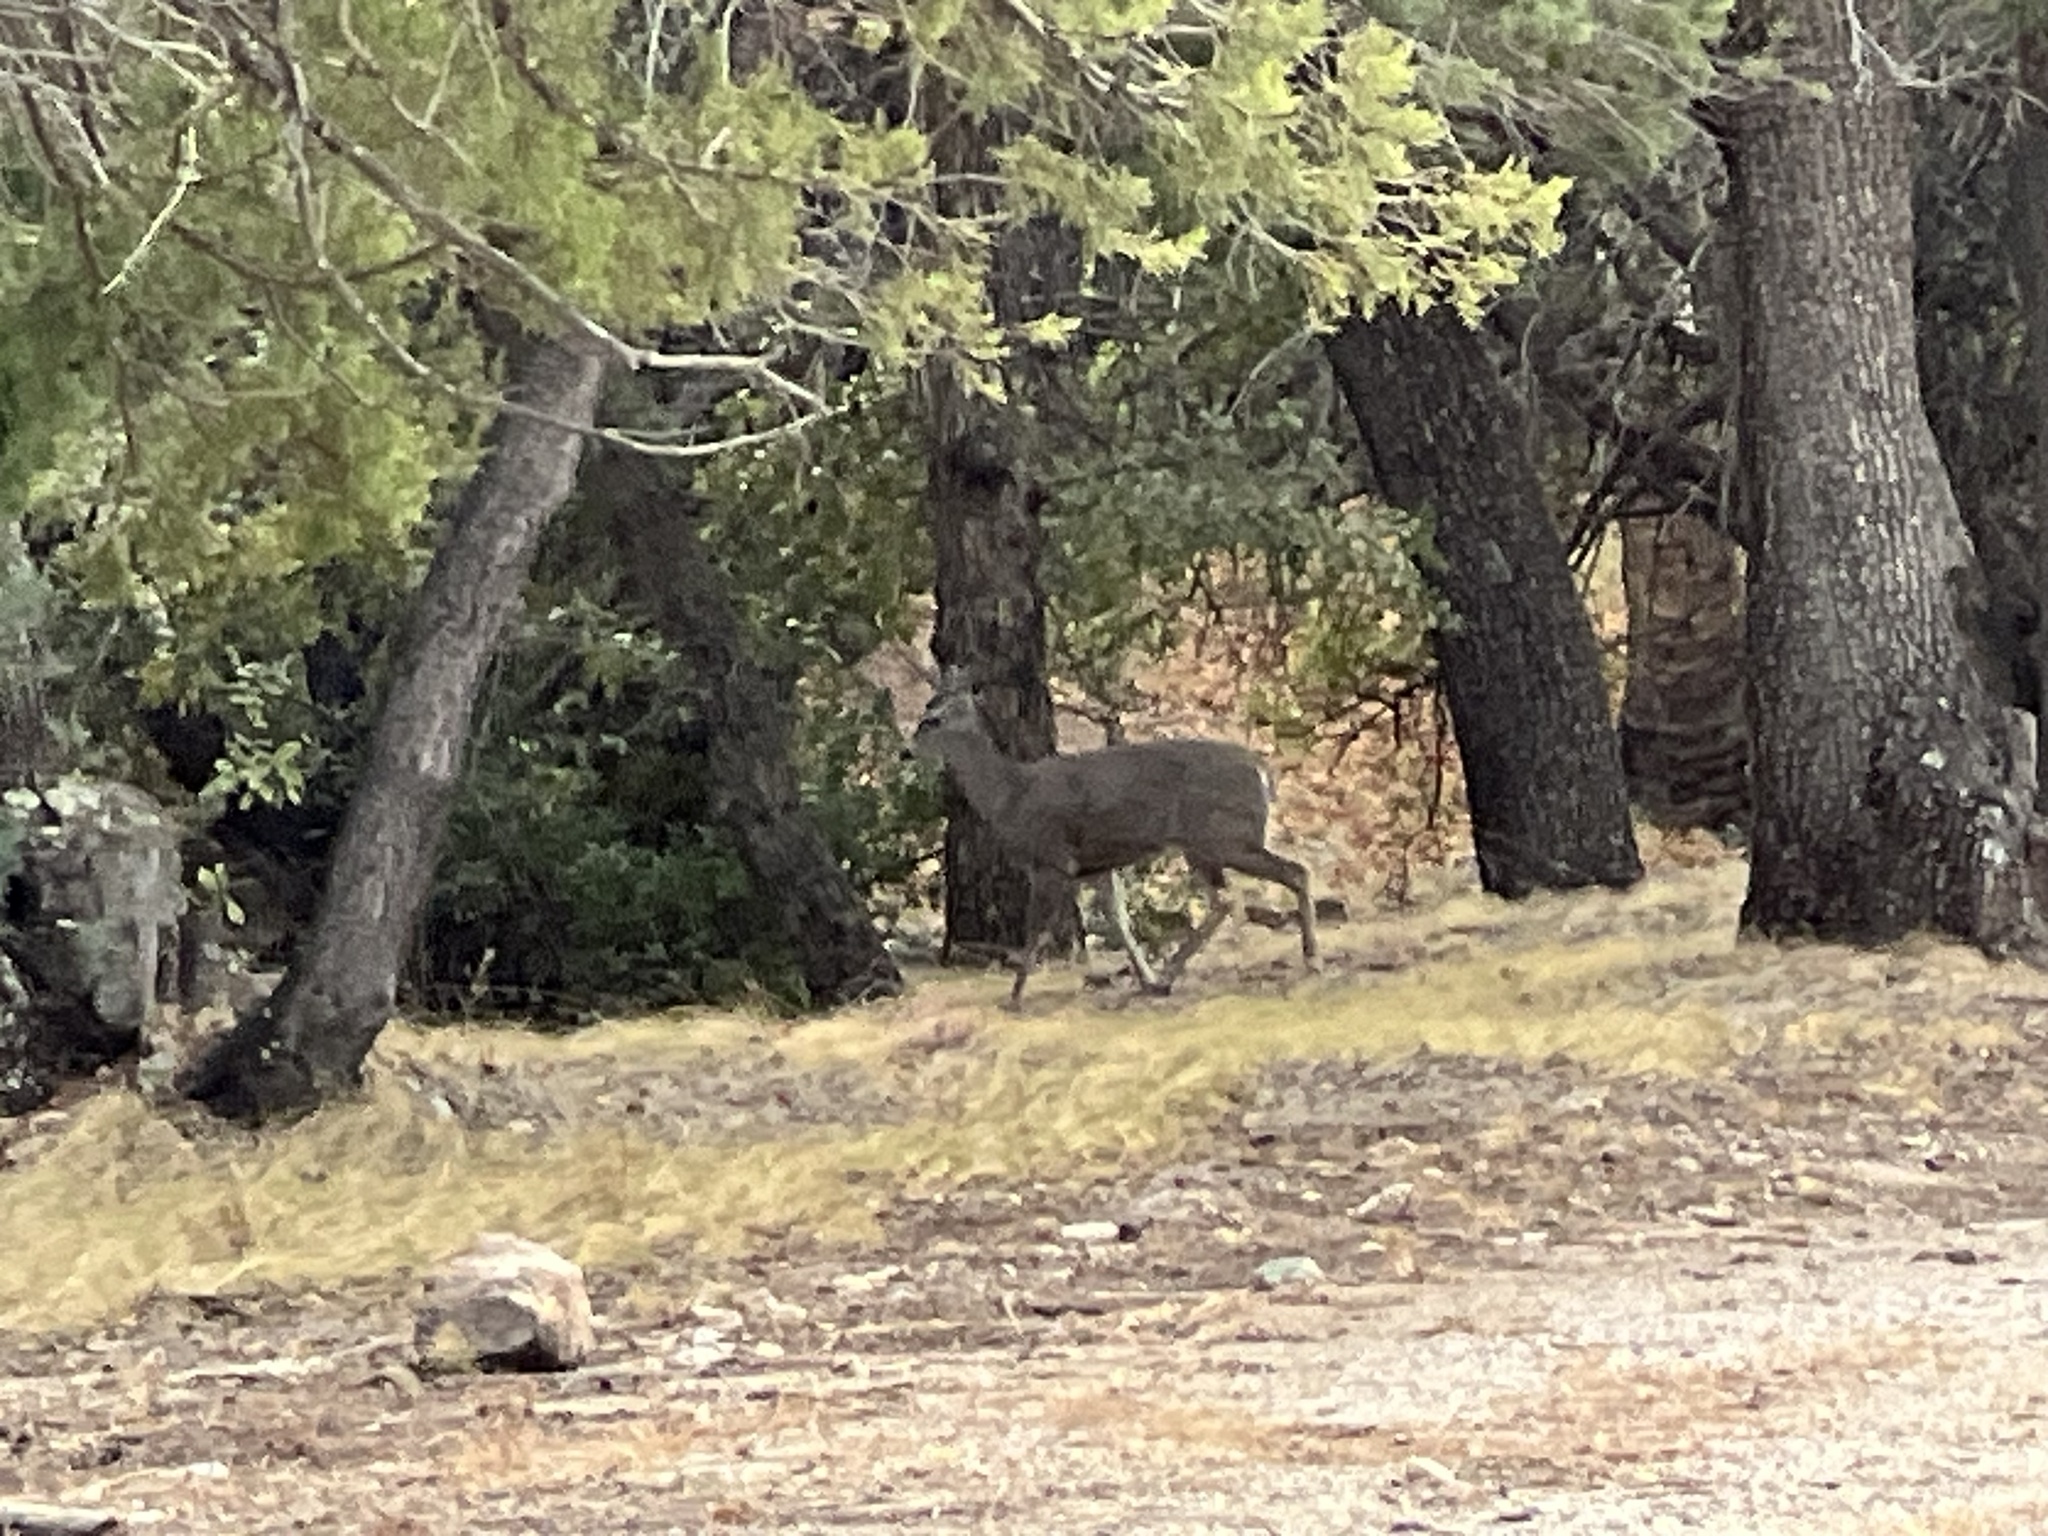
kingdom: Animalia
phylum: Chordata
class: Mammalia
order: Artiodactyla
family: Cervidae
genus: Odocoileus
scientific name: Odocoileus virginianus
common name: White-tailed deer
